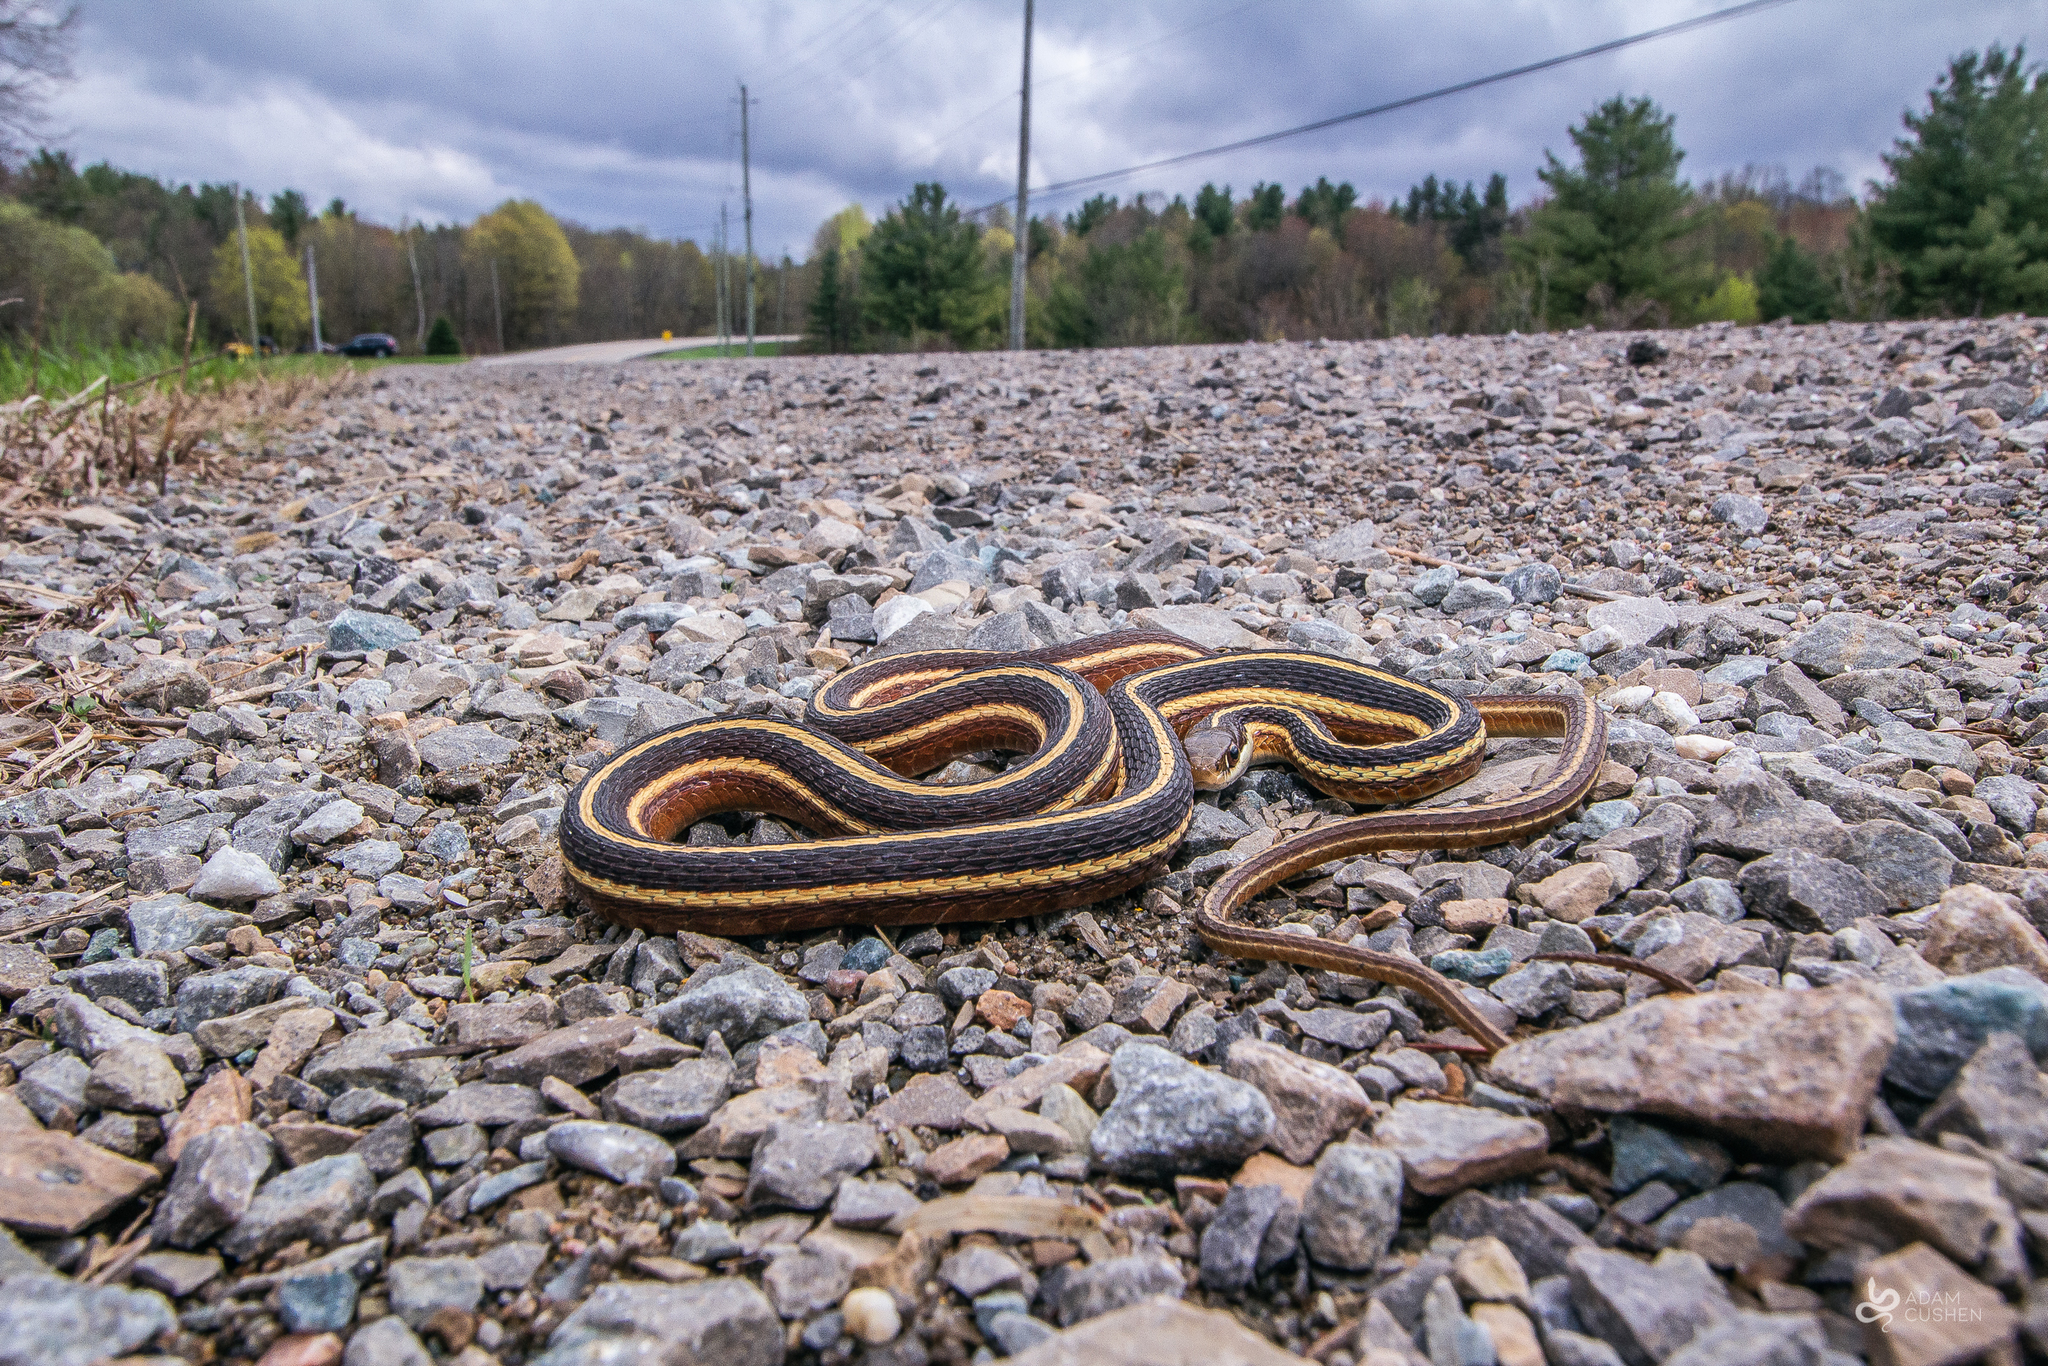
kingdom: Animalia
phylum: Chordata
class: Squamata
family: Colubridae
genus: Thamnophis
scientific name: Thamnophis saurita
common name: Eastern ribbonsnake
